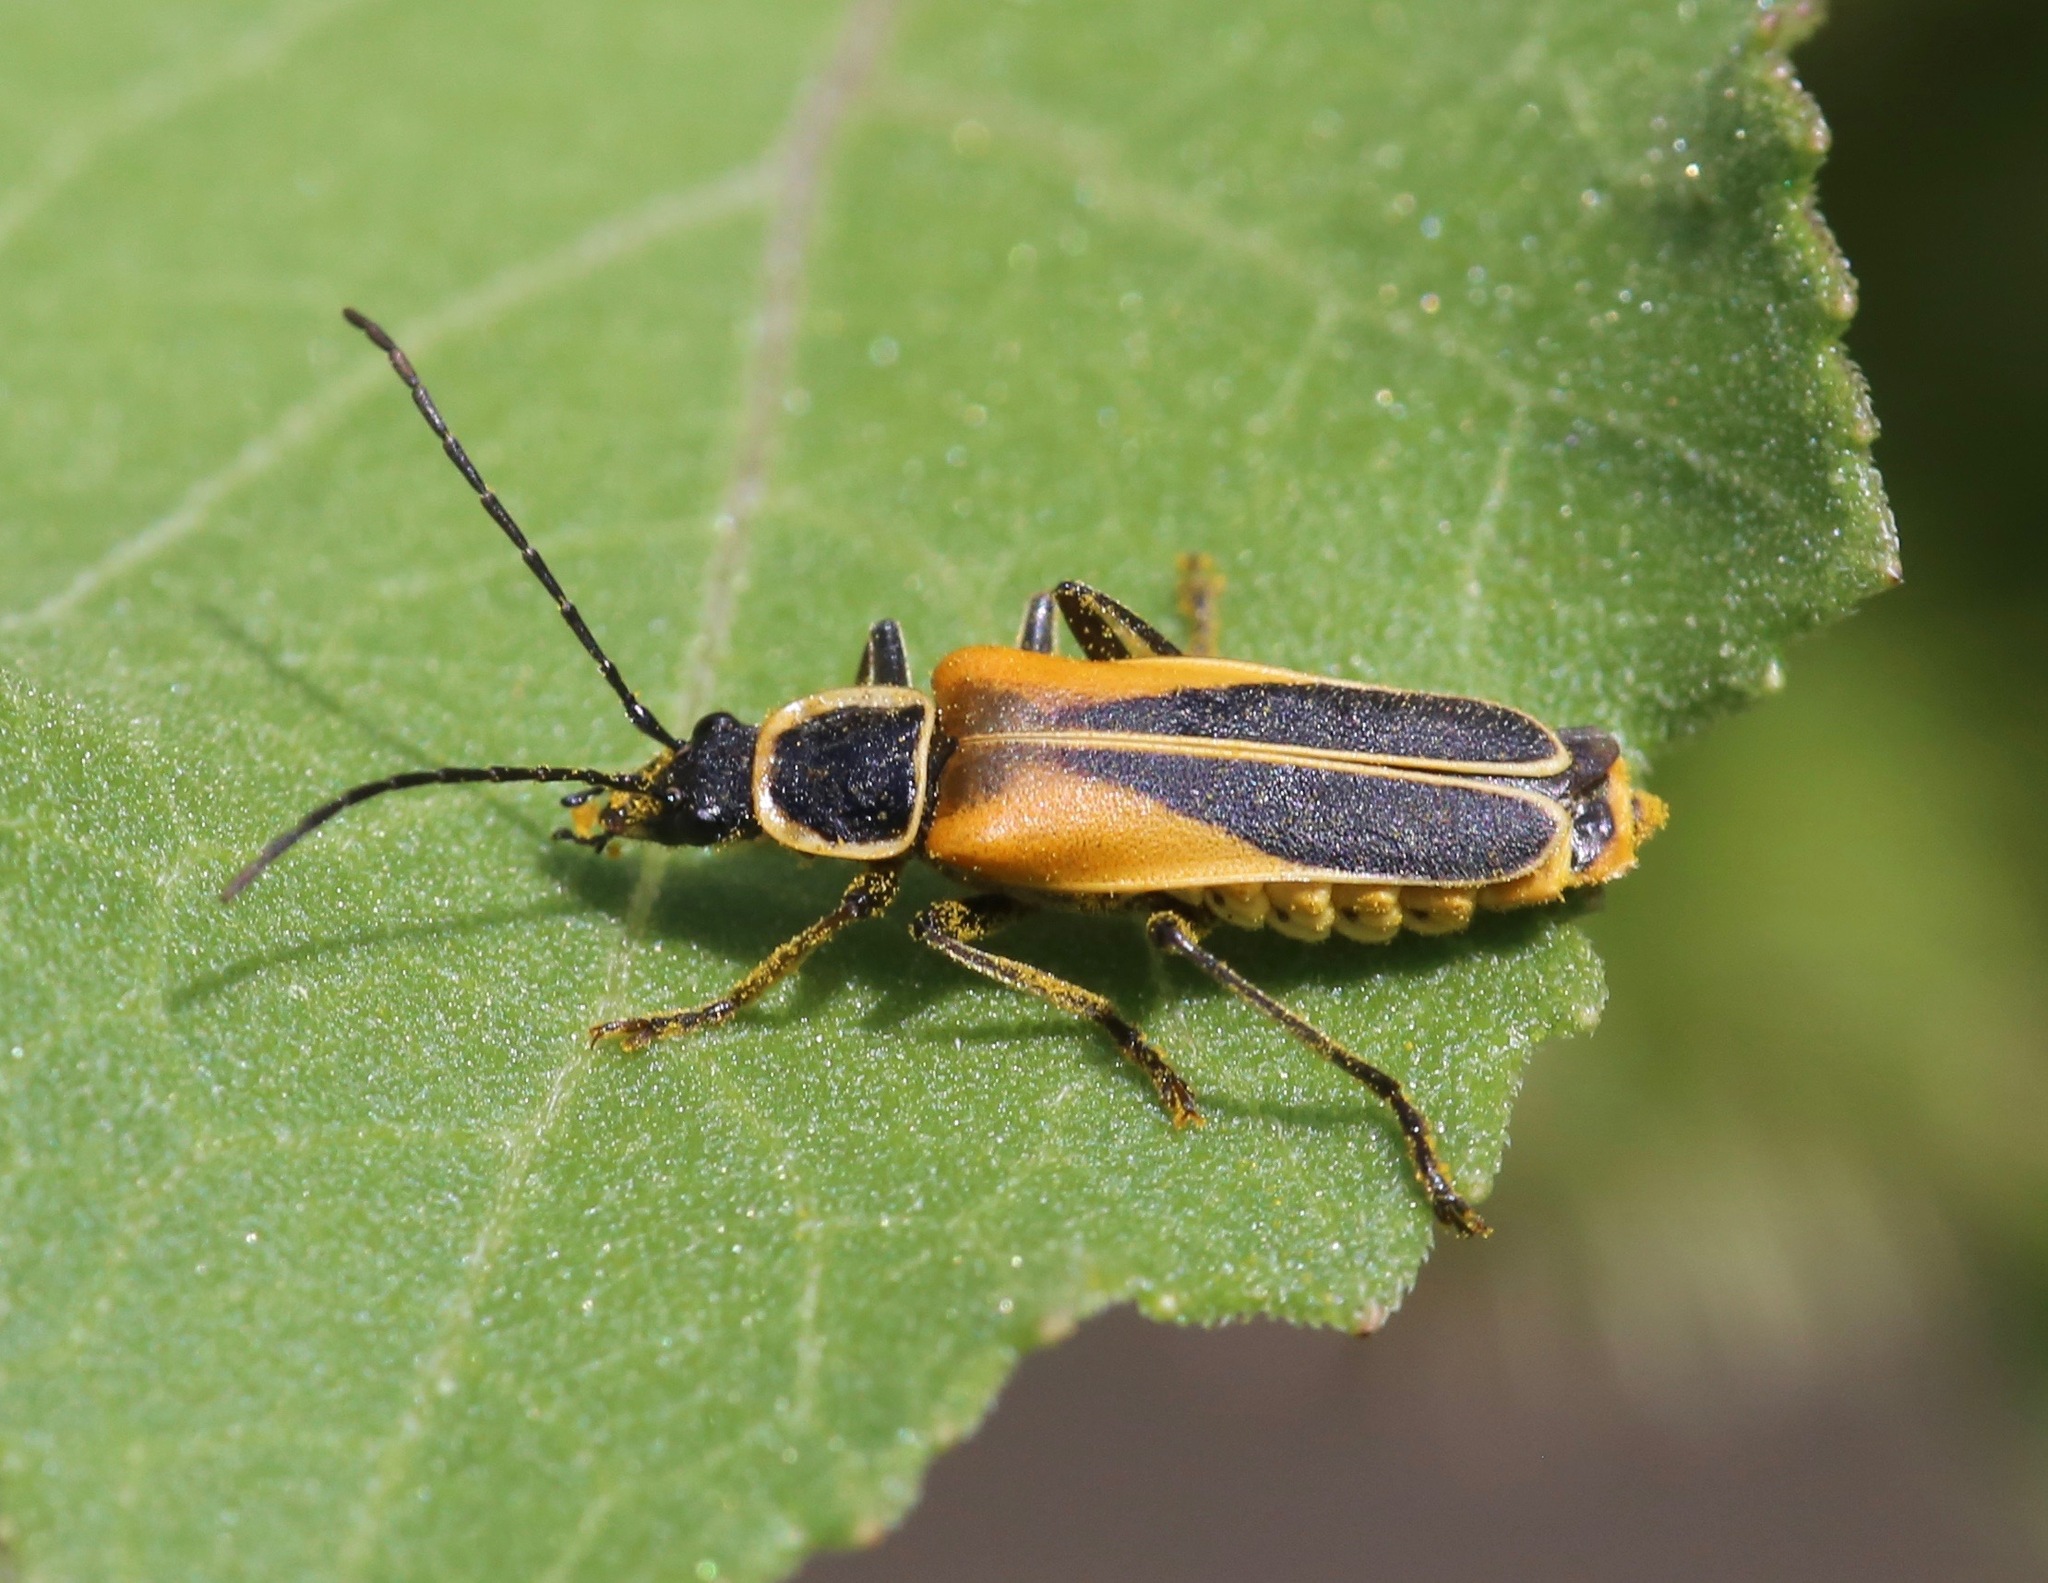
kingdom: Animalia
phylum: Arthropoda
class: Insecta
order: Coleoptera
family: Cantharidae
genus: Chauliognathus
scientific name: Chauliognathus opacus
